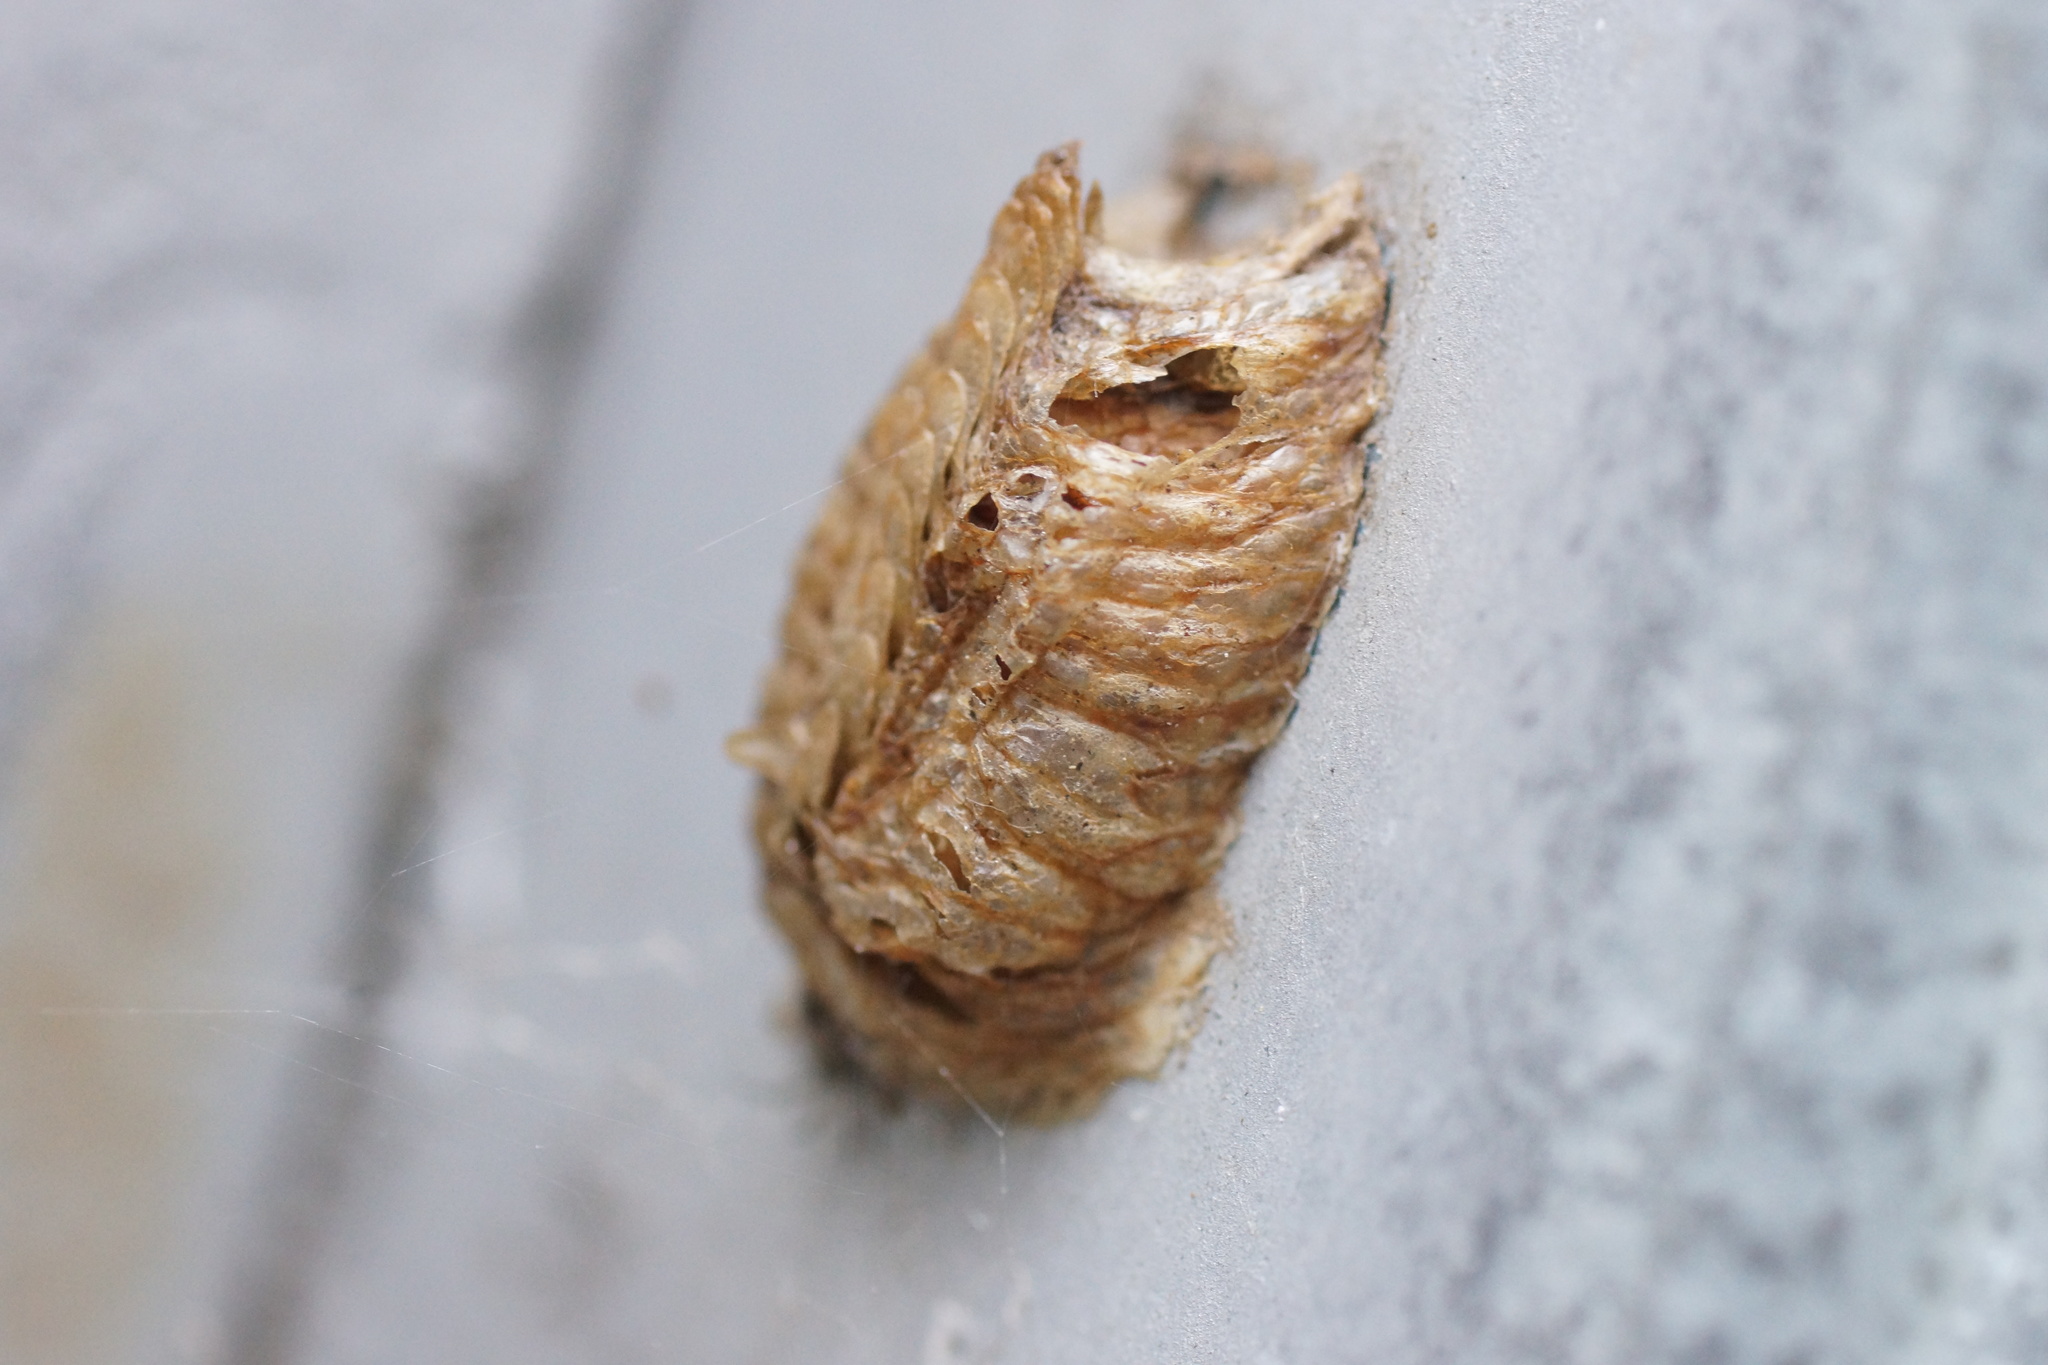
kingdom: Animalia
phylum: Arthropoda
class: Insecta
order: Mantodea
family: Mantidae
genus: Pseudomantis
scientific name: Pseudomantis albofimbriata
